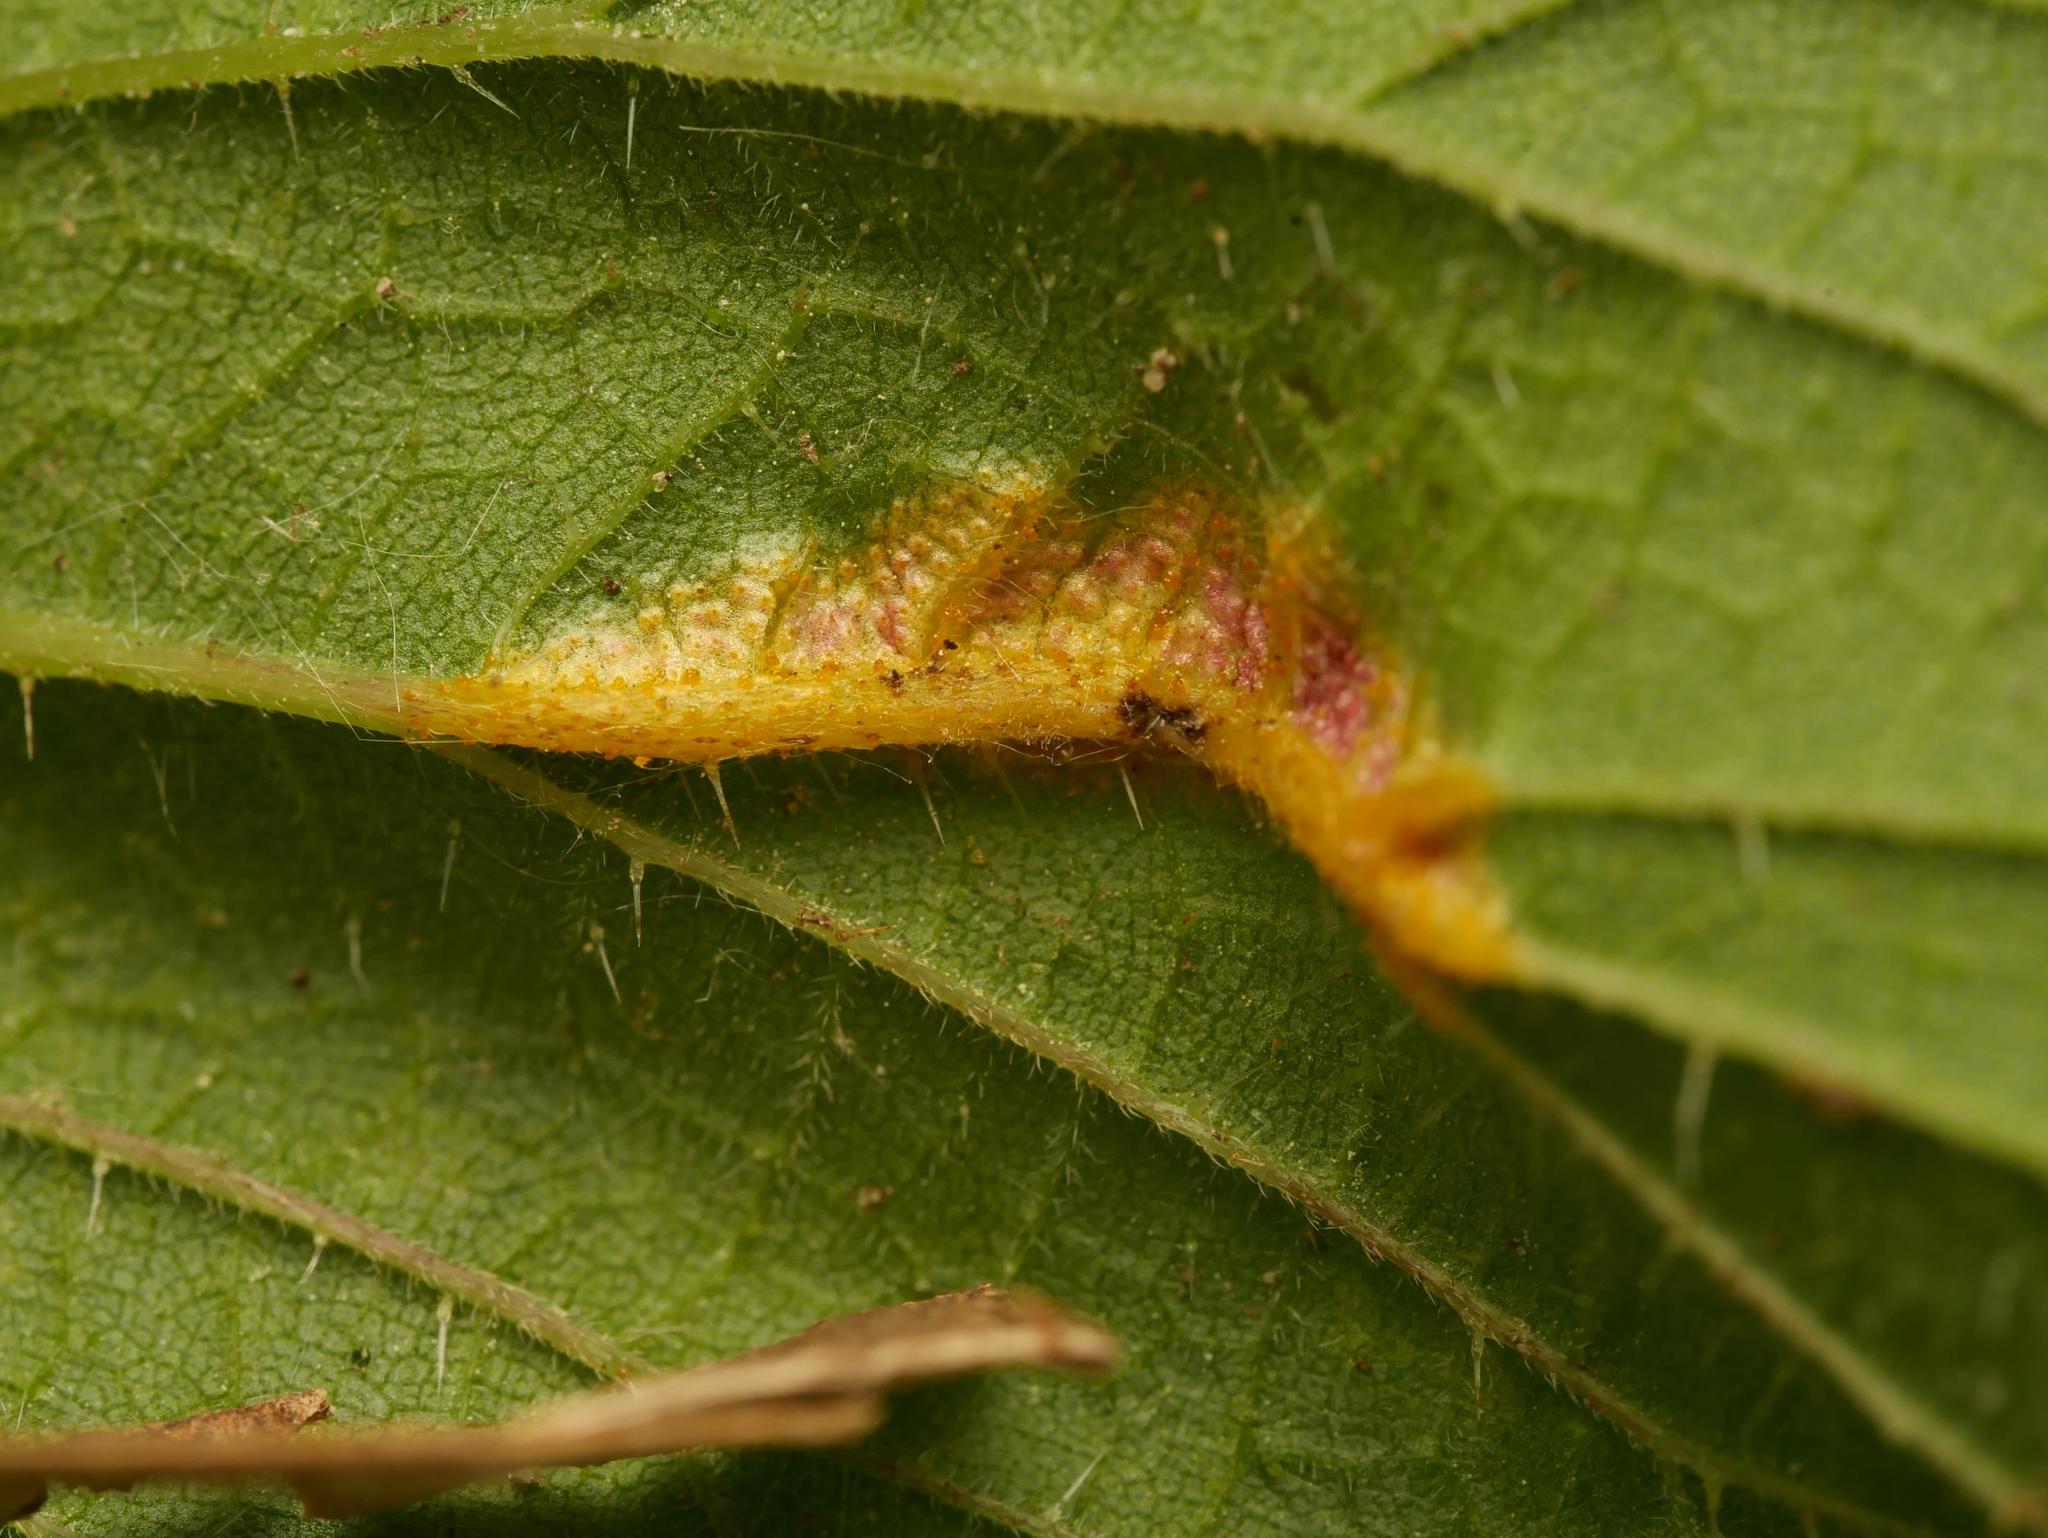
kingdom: Fungi
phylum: Basidiomycota
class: Pucciniomycetes
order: Pucciniales
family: Pucciniaceae
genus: Puccinia
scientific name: Puccinia urticata
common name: Nettle clustercup rust fungus
